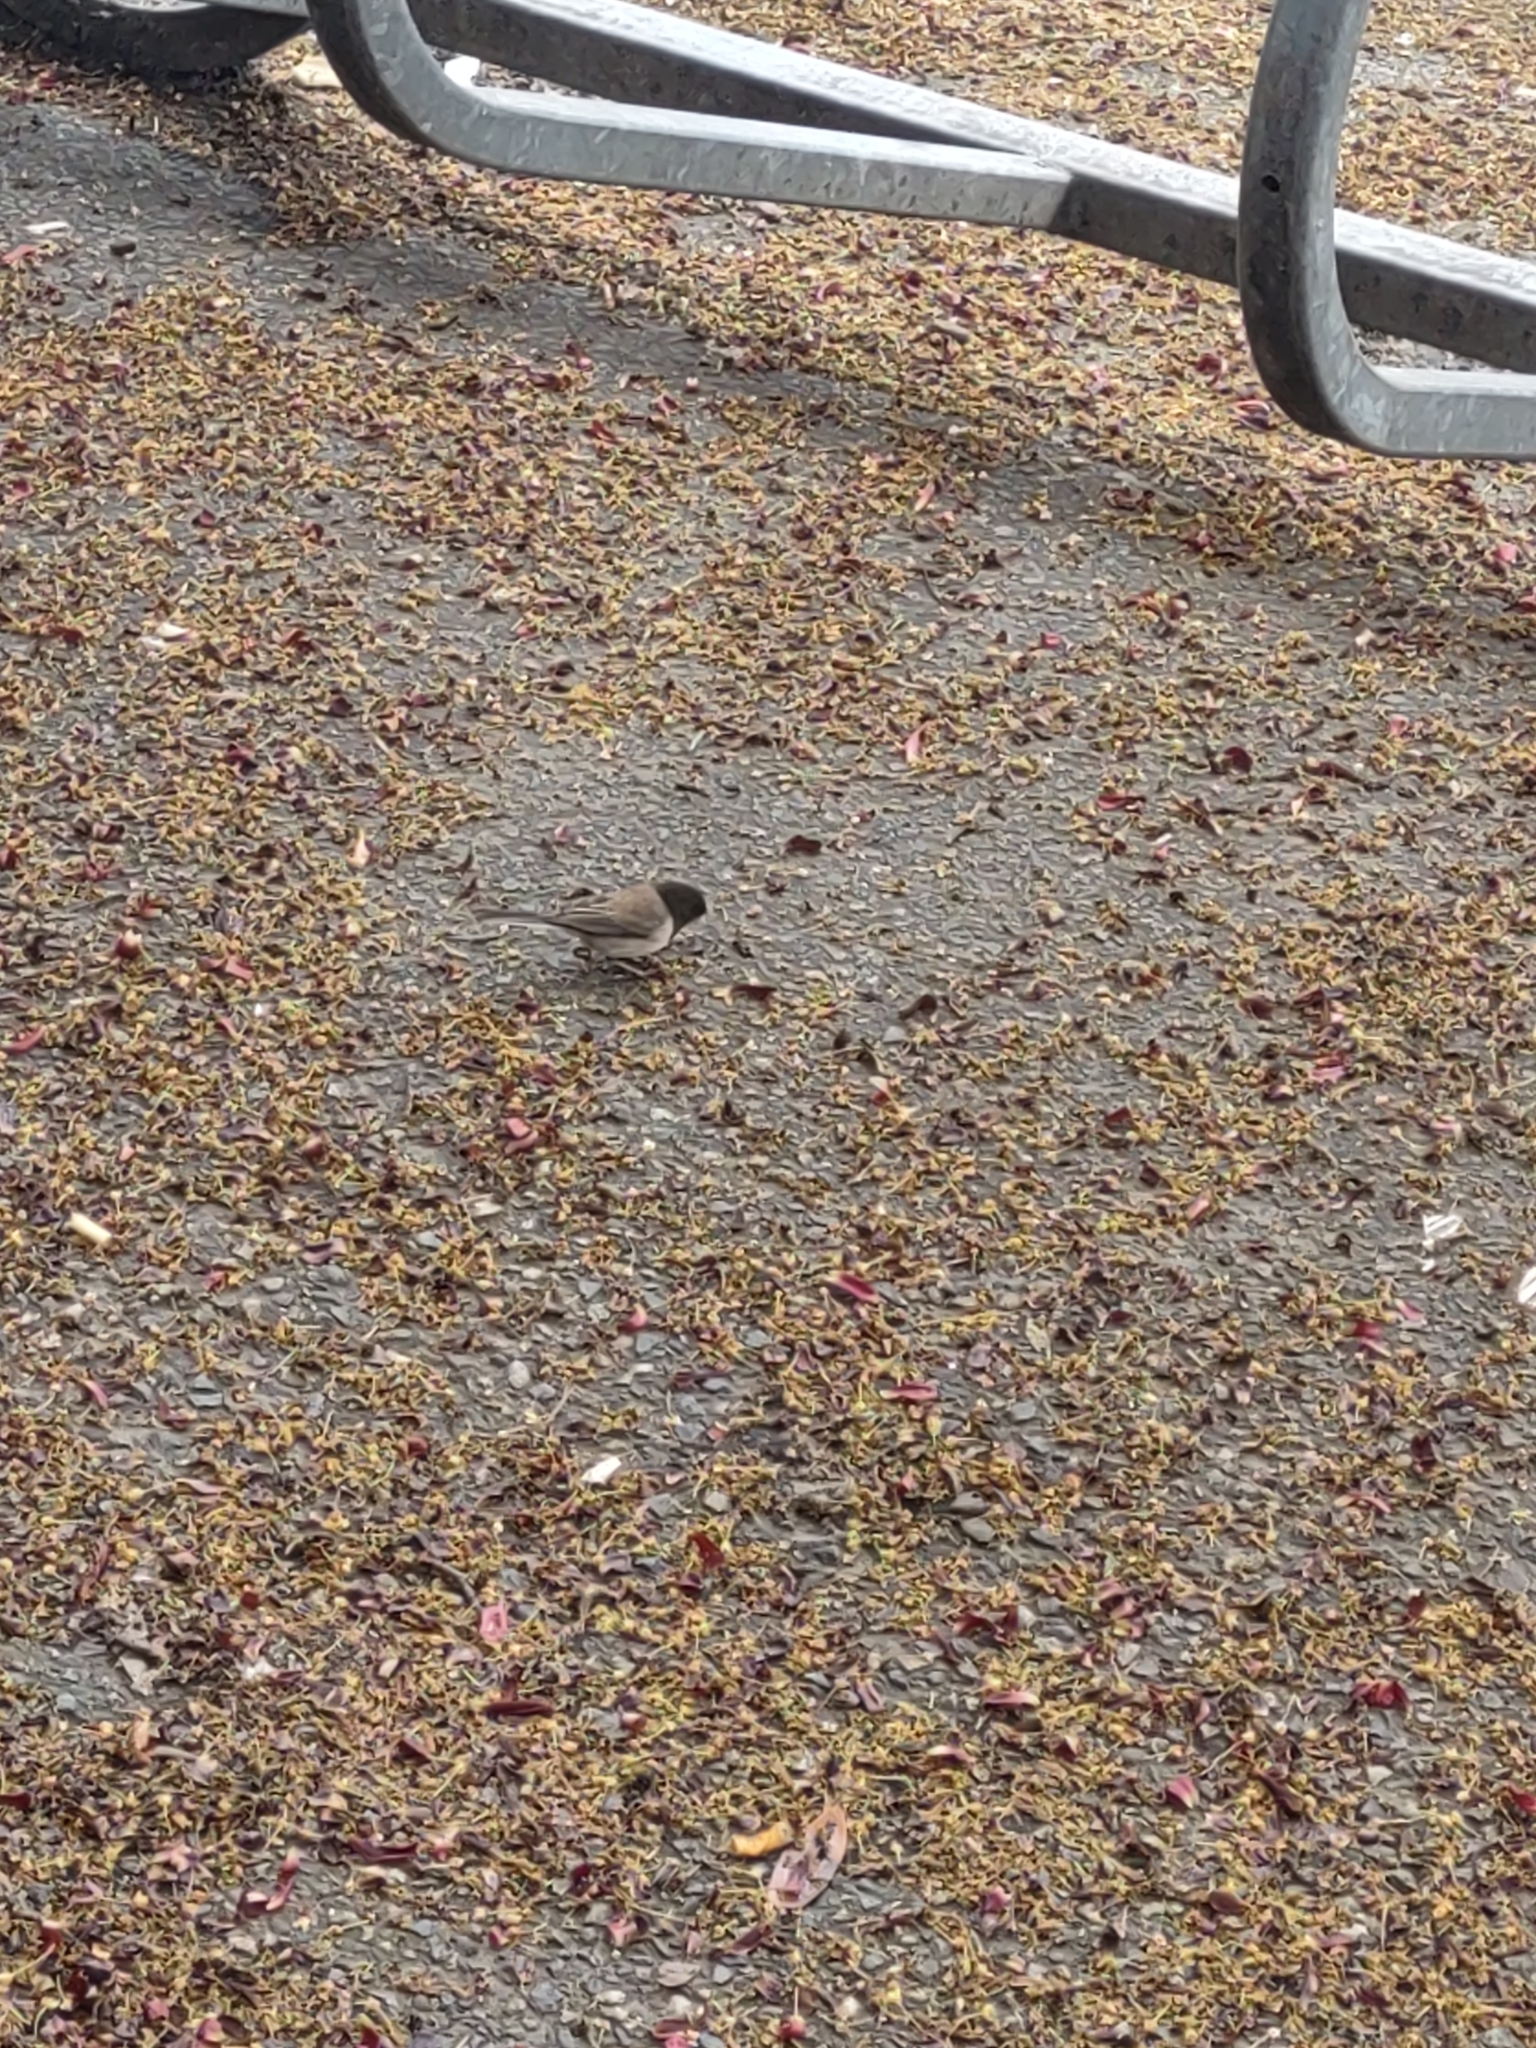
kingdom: Animalia
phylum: Chordata
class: Aves
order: Passeriformes
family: Passerellidae
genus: Junco
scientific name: Junco hyemalis
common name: Dark-eyed junco
